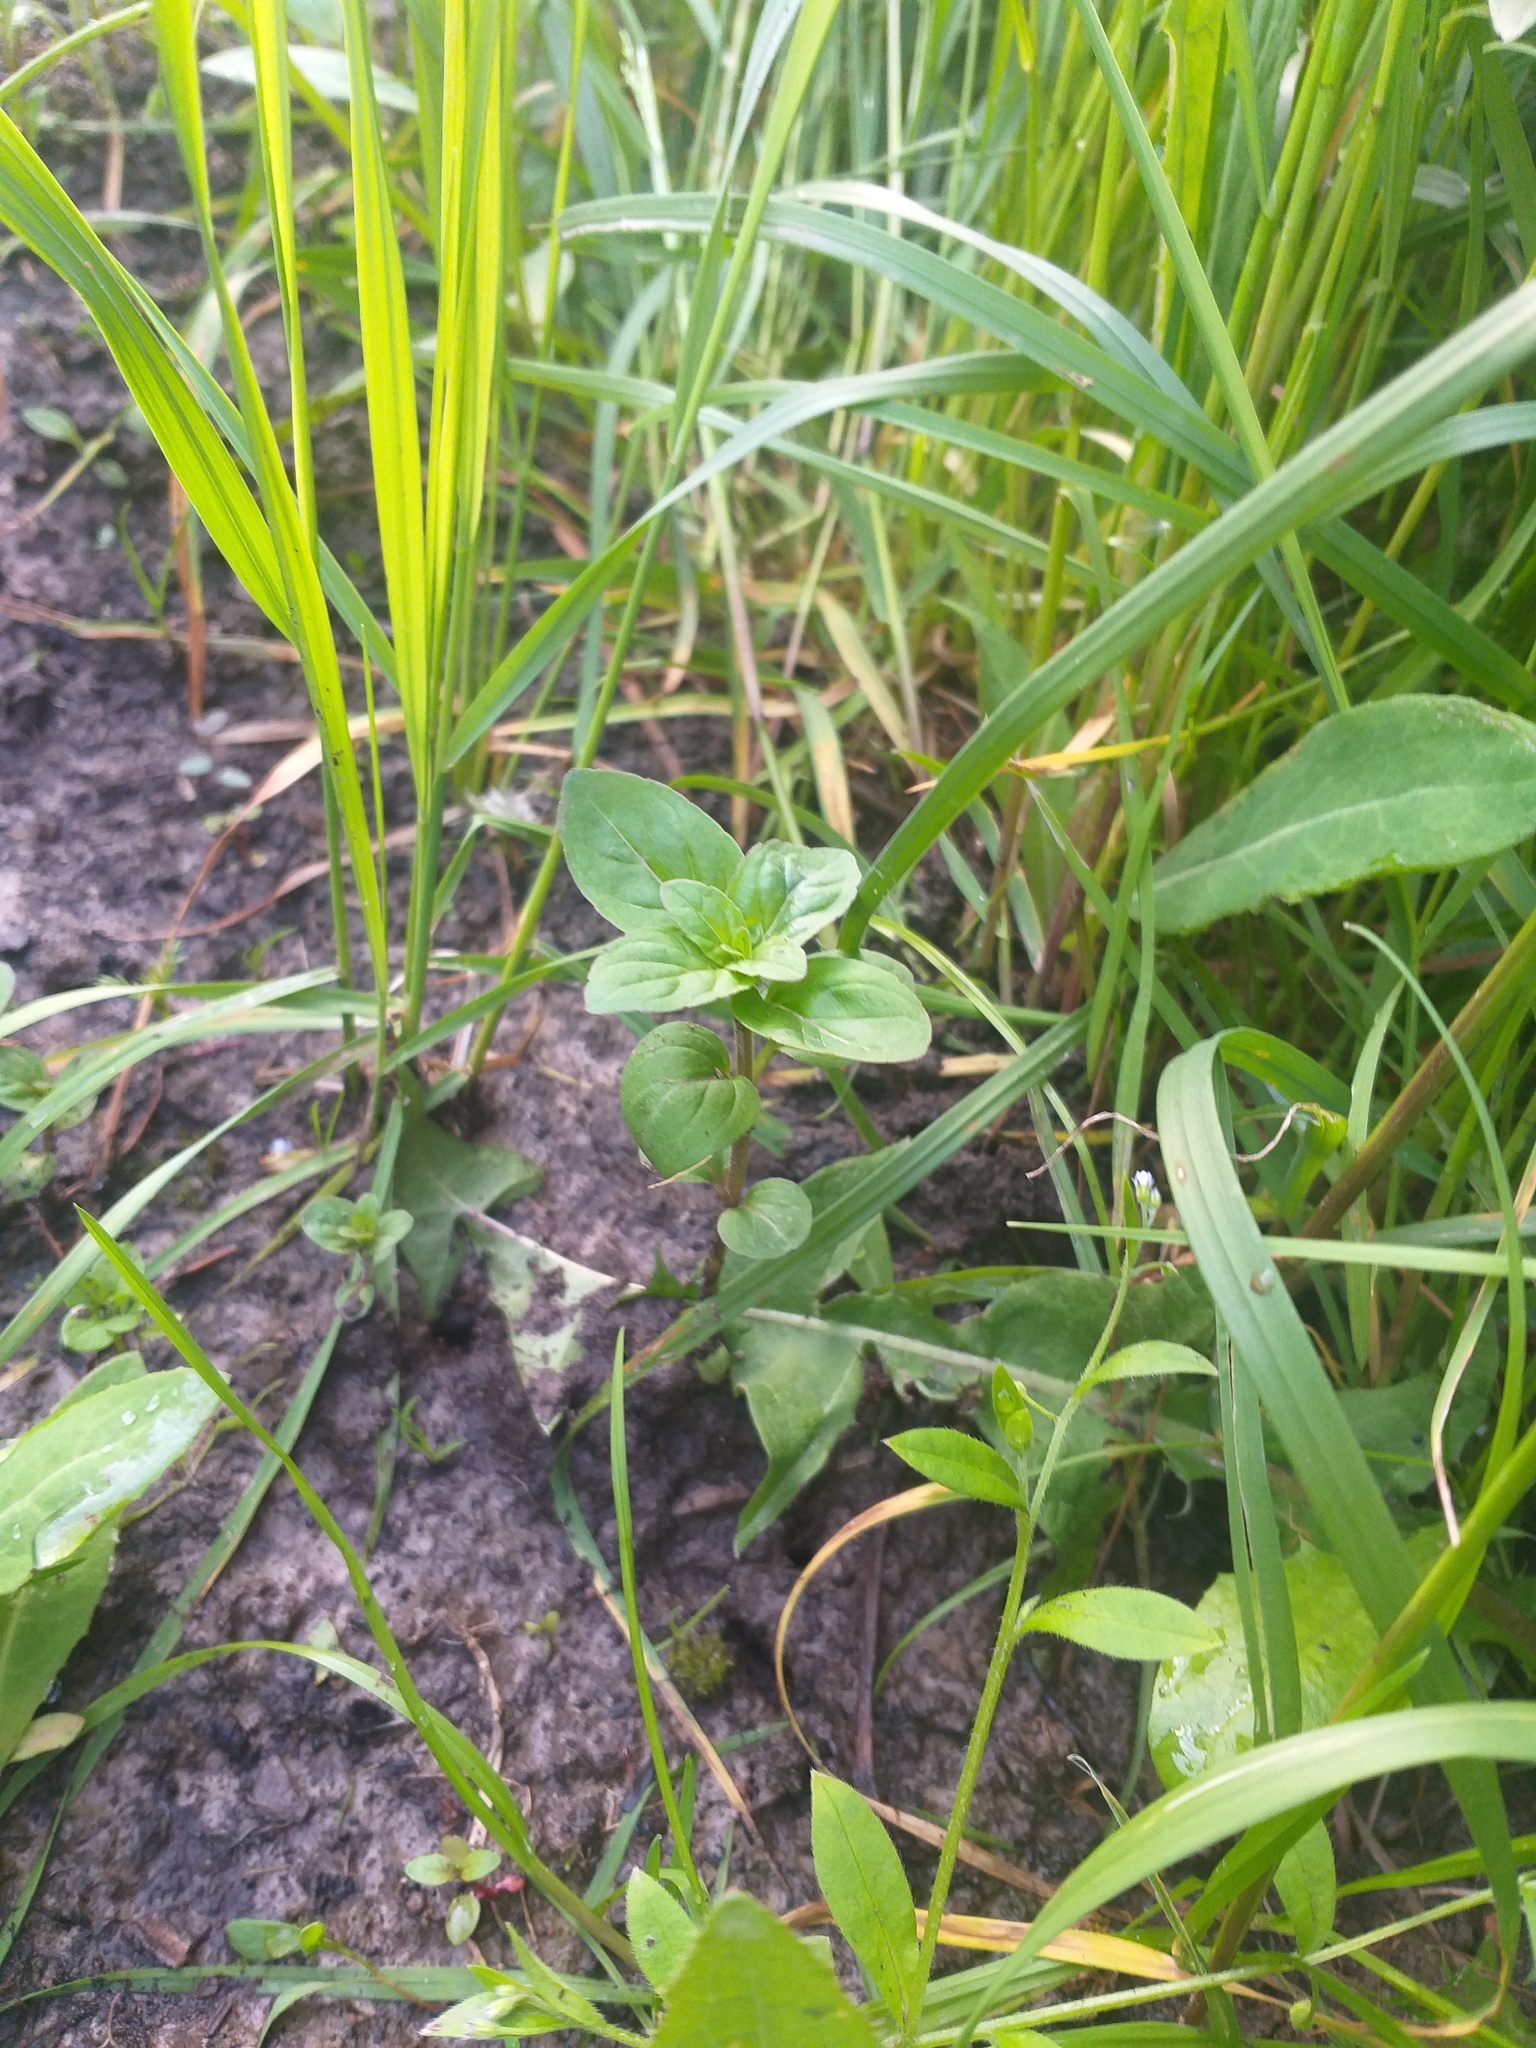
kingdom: Plantae
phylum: Tracheophyta
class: Magnoliopsida
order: Lamiales
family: Lamiaceae
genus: Mentha
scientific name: Mentha arvensis
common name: Corn mint
